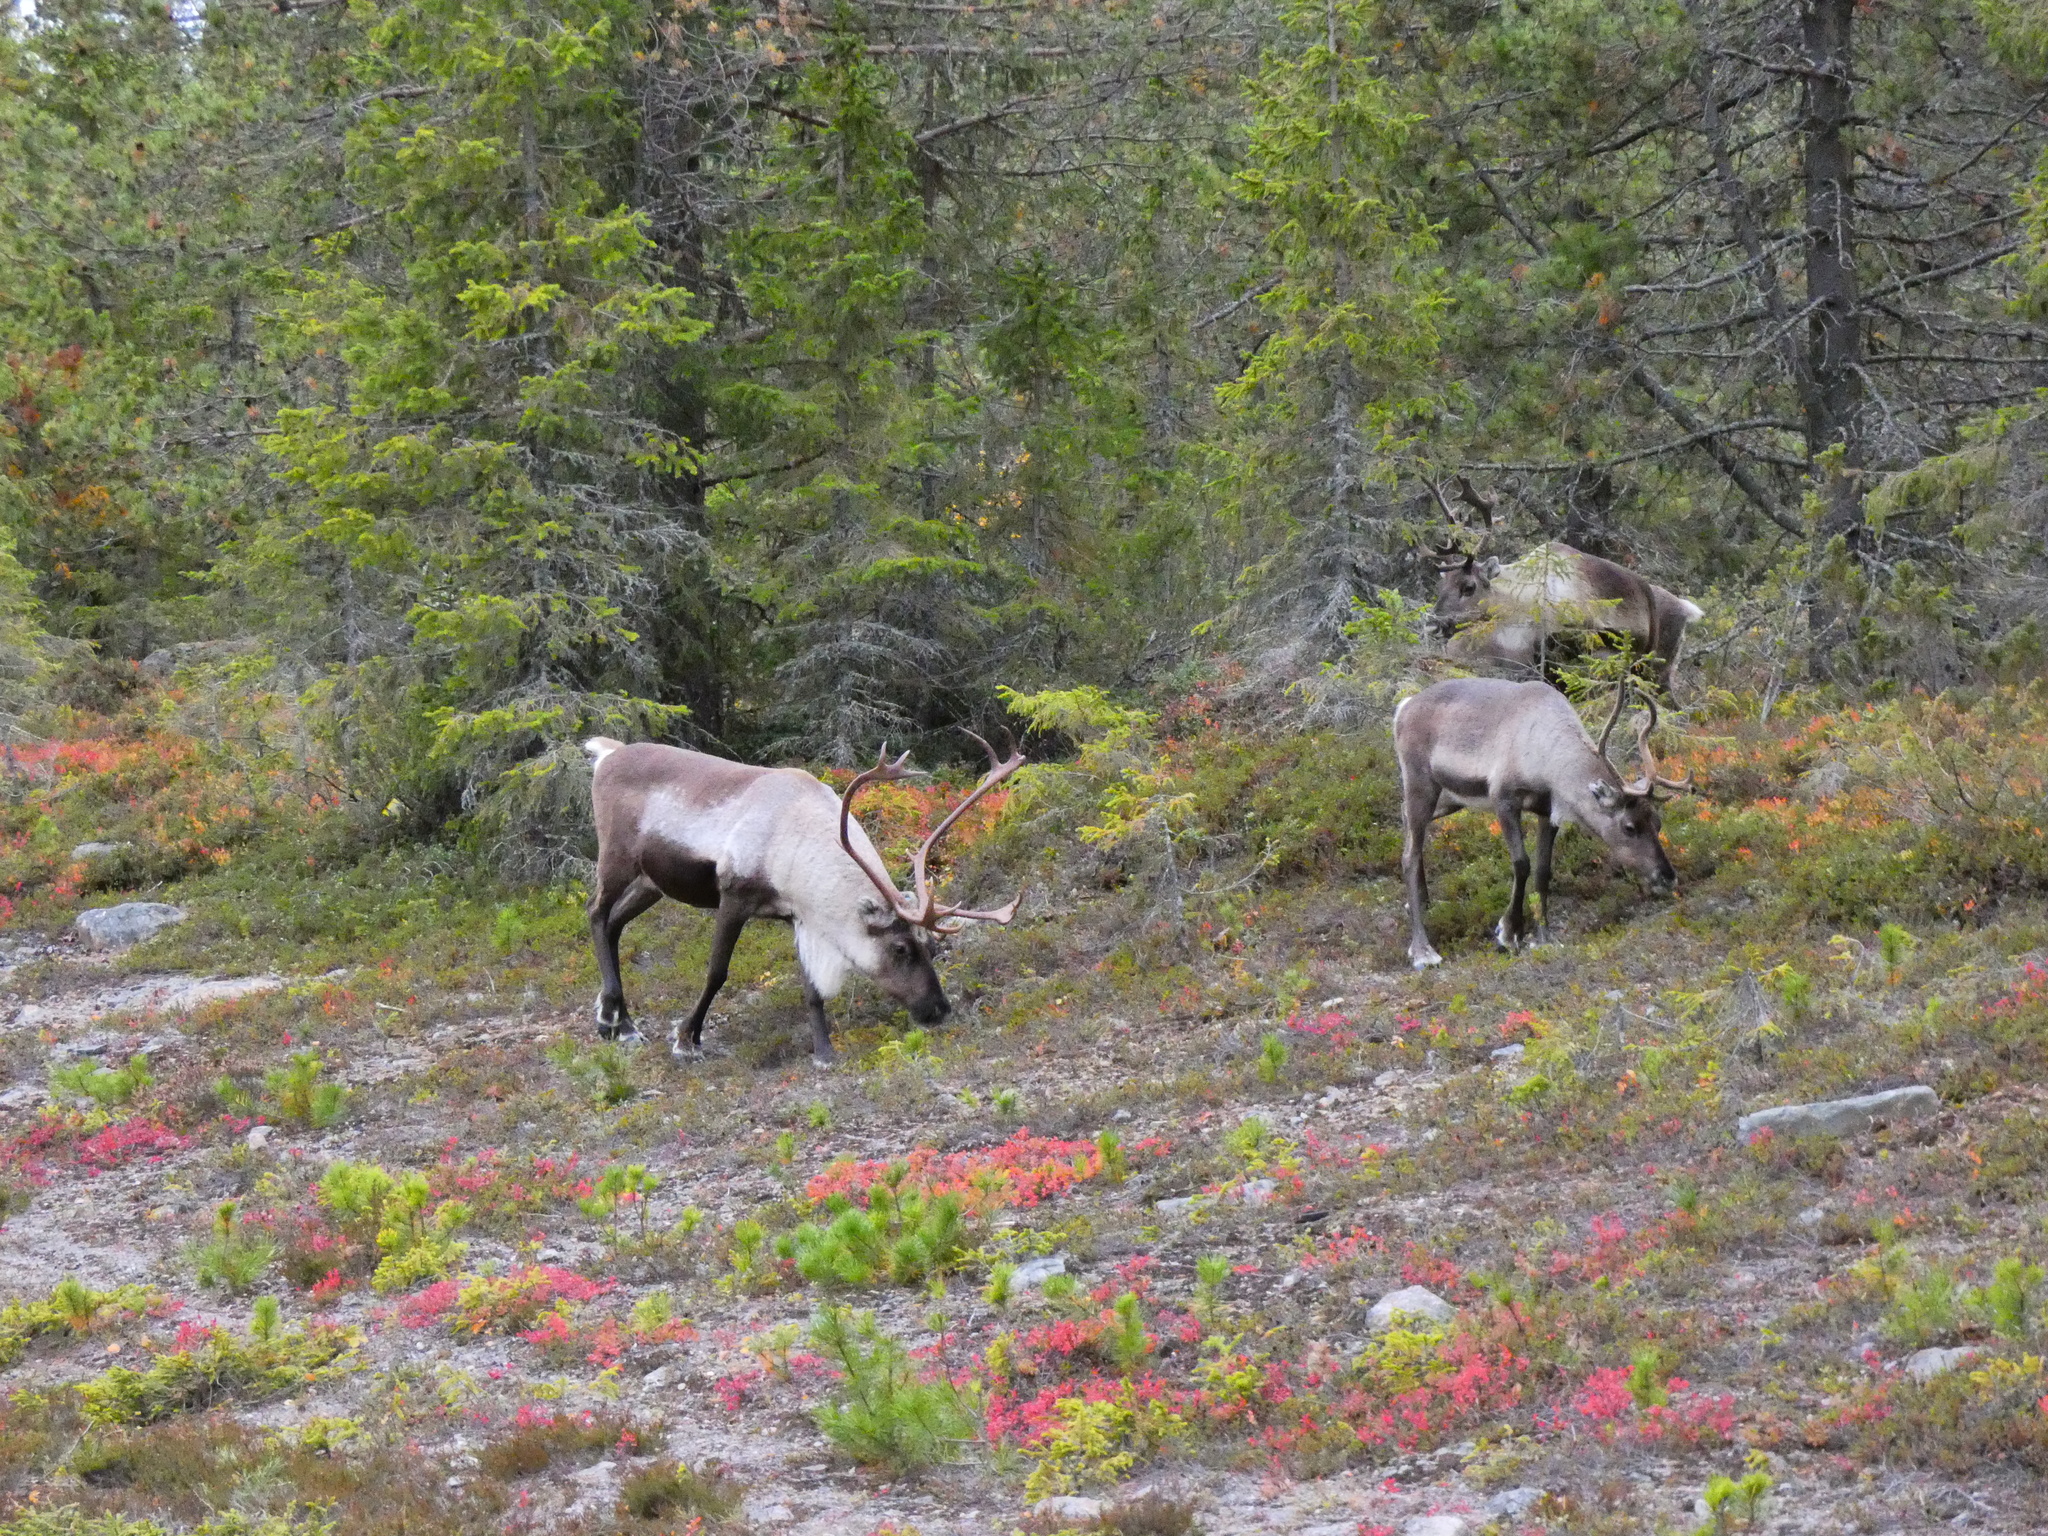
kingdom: Animalia
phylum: Chordata
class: Mammalia
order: Artiodactyla
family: Cervidae
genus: Rangifer
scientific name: Rangifer tarandus
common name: Reindeer
